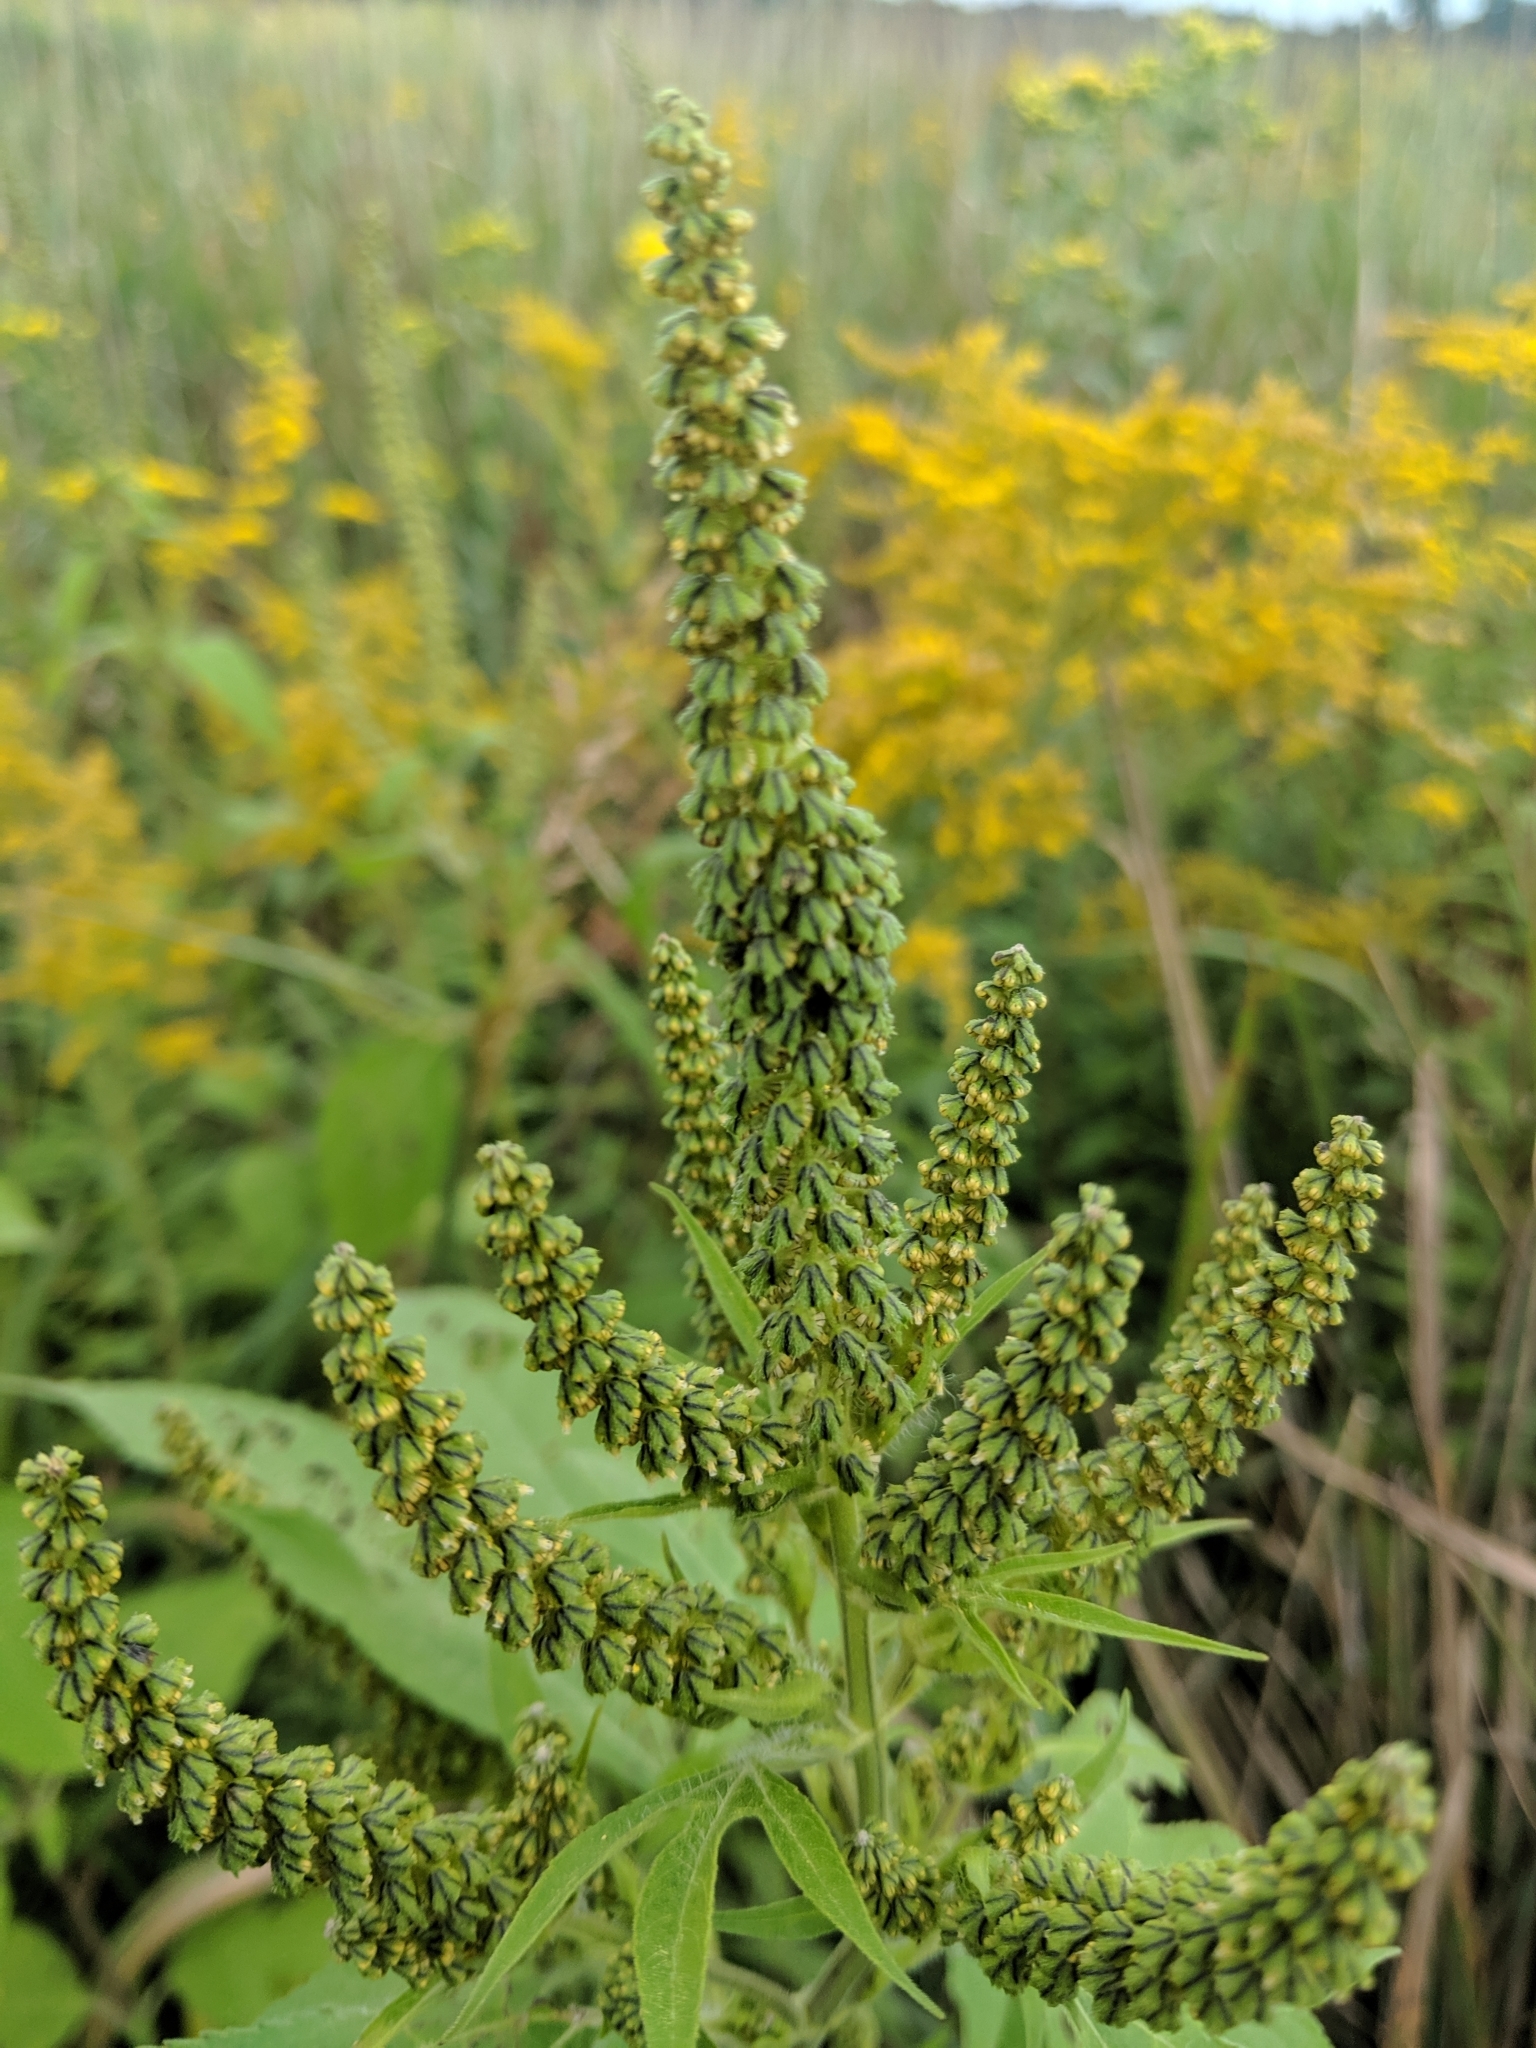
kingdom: Plantae
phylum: Tracheophyta
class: Magnoliopsida
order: Asterales
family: Asteraceae
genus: Ambrosia
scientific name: Ambrosia trifida
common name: Giant ragweed
